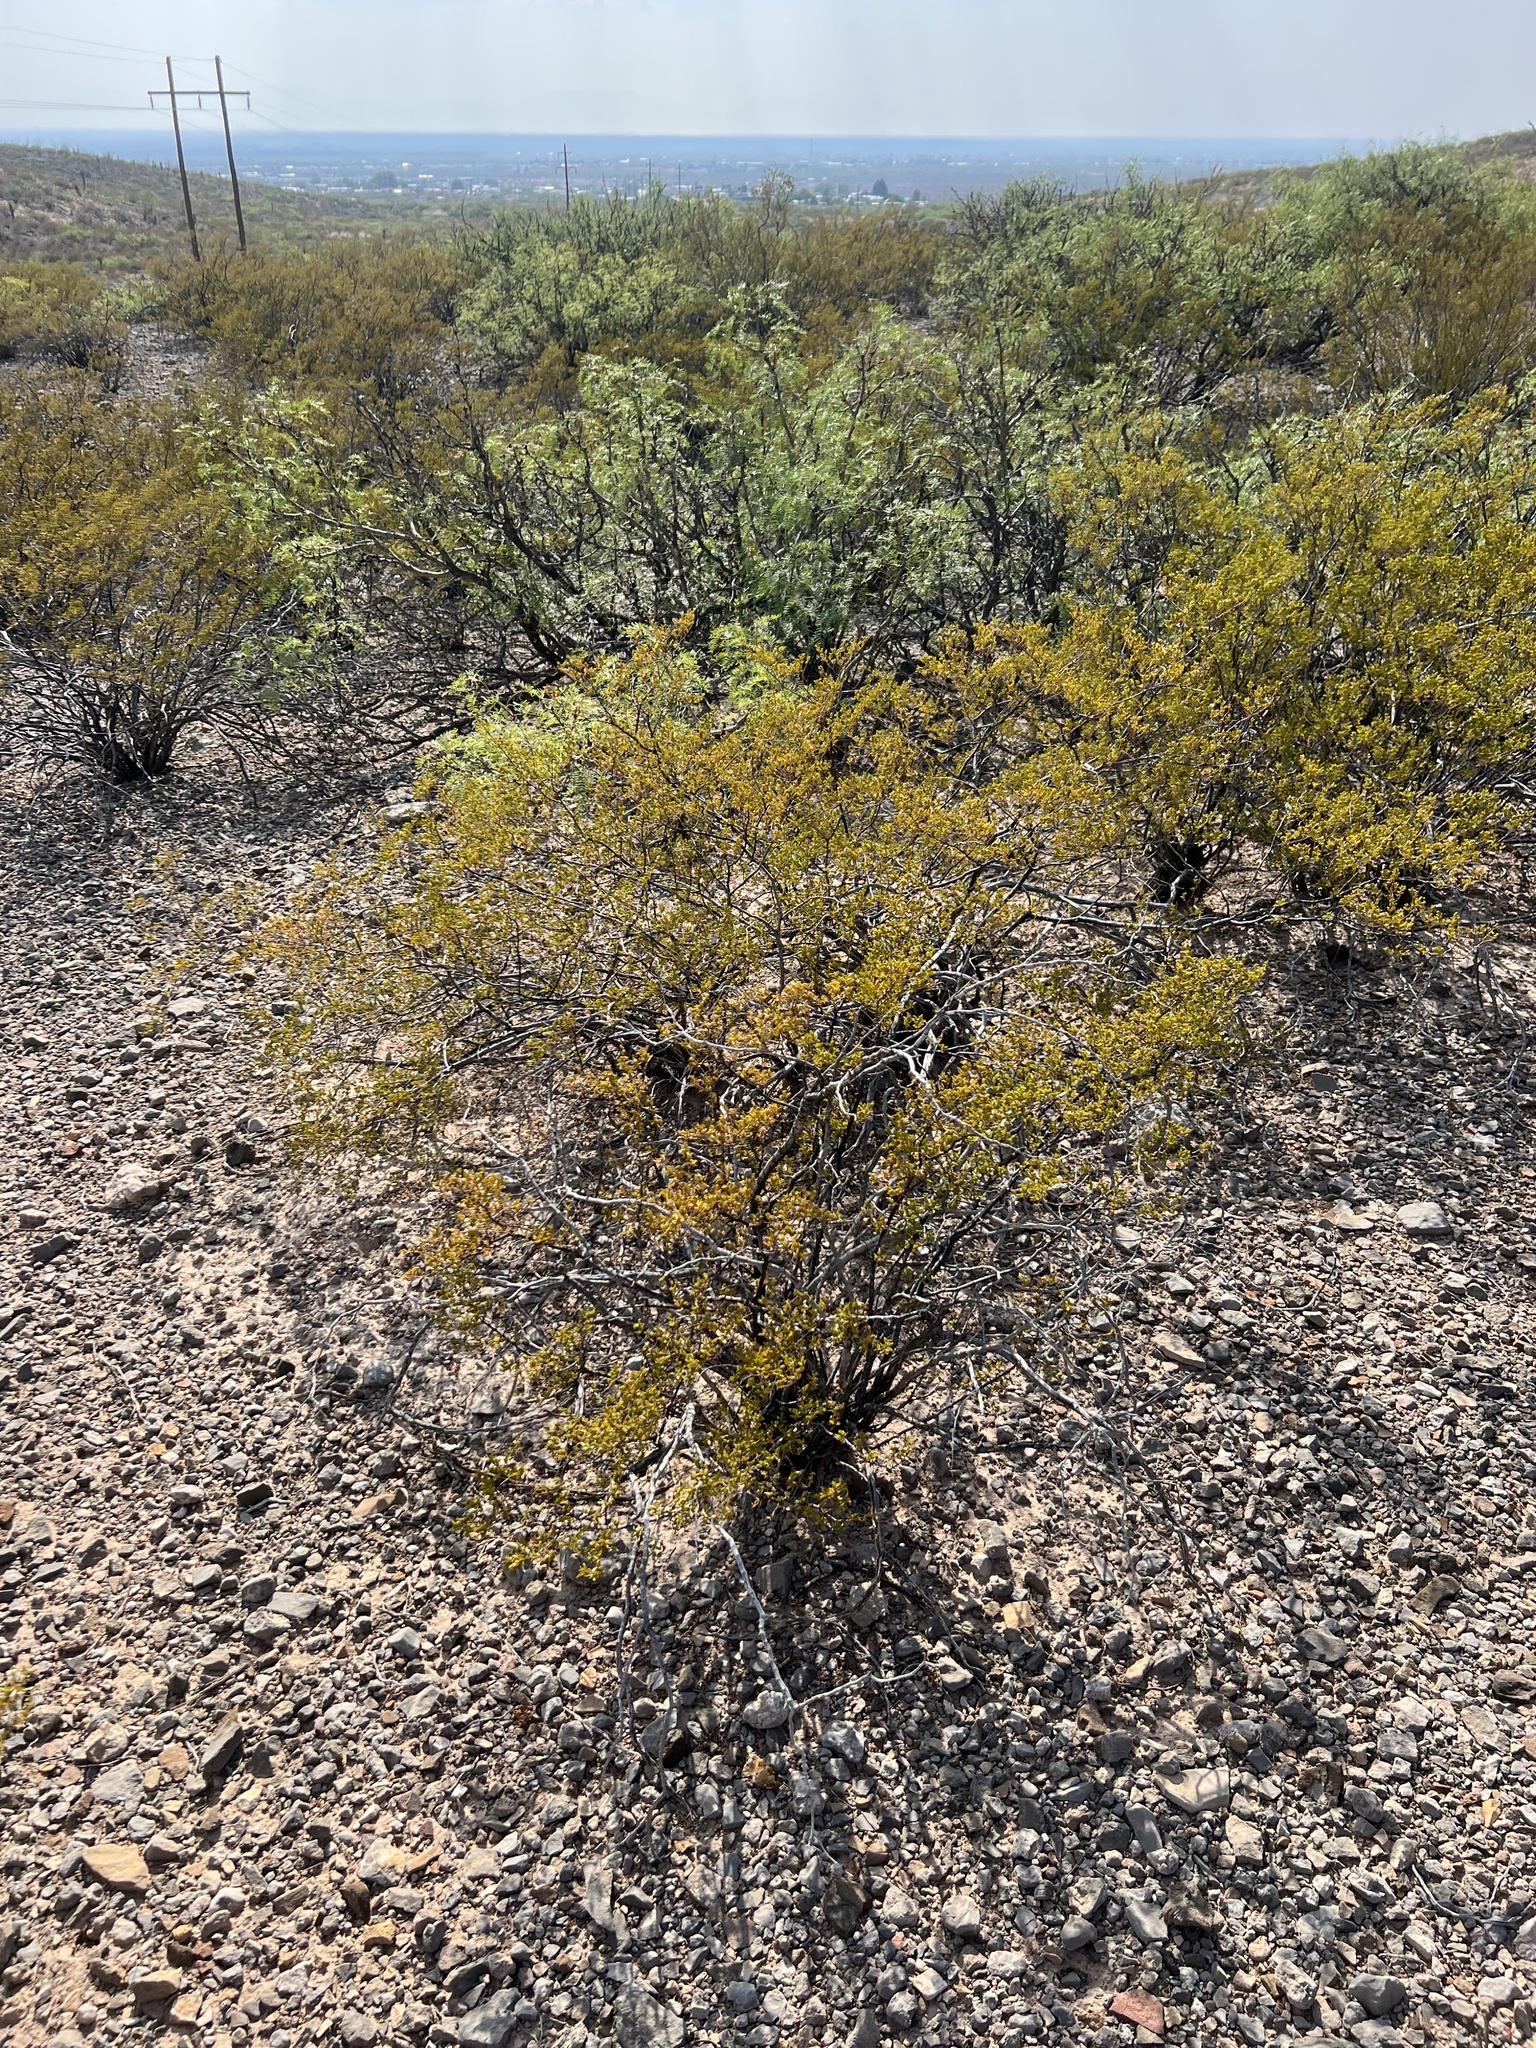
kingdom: Plantae
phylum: Tracheophyta
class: Magnoliopsida
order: Zygophyllales
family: Zygophyllaceae
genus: Larrea
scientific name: Larrea tridentata
